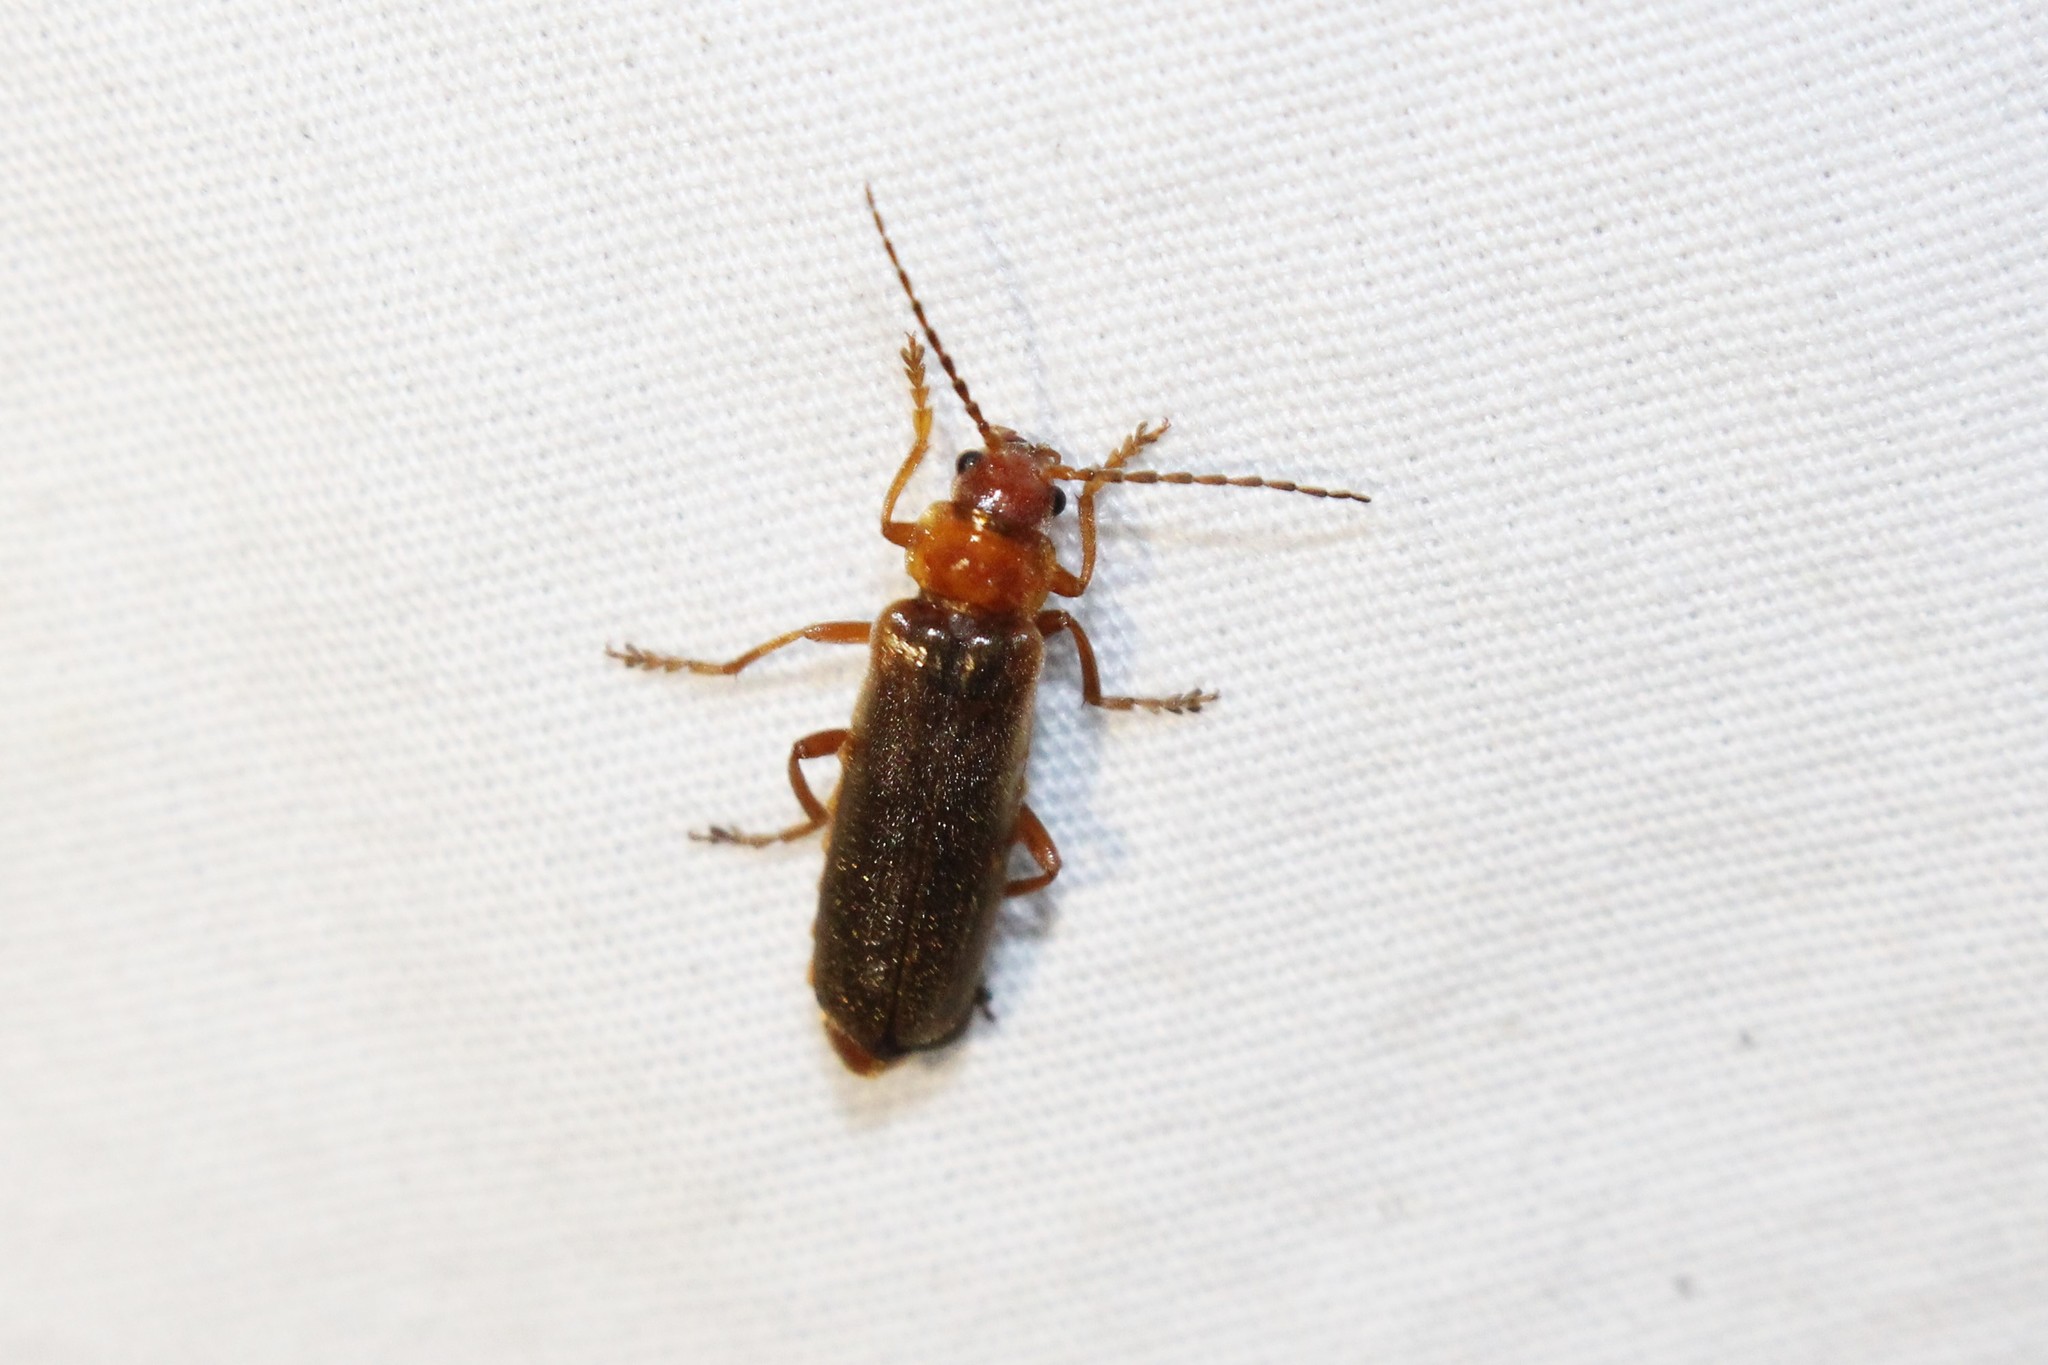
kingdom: Animalia
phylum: Arthropoda
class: Insecta
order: Coleoptera
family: Cantharidae
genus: Cantharis
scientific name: Cantharis rufa
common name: Red-spotted soldier beetle
